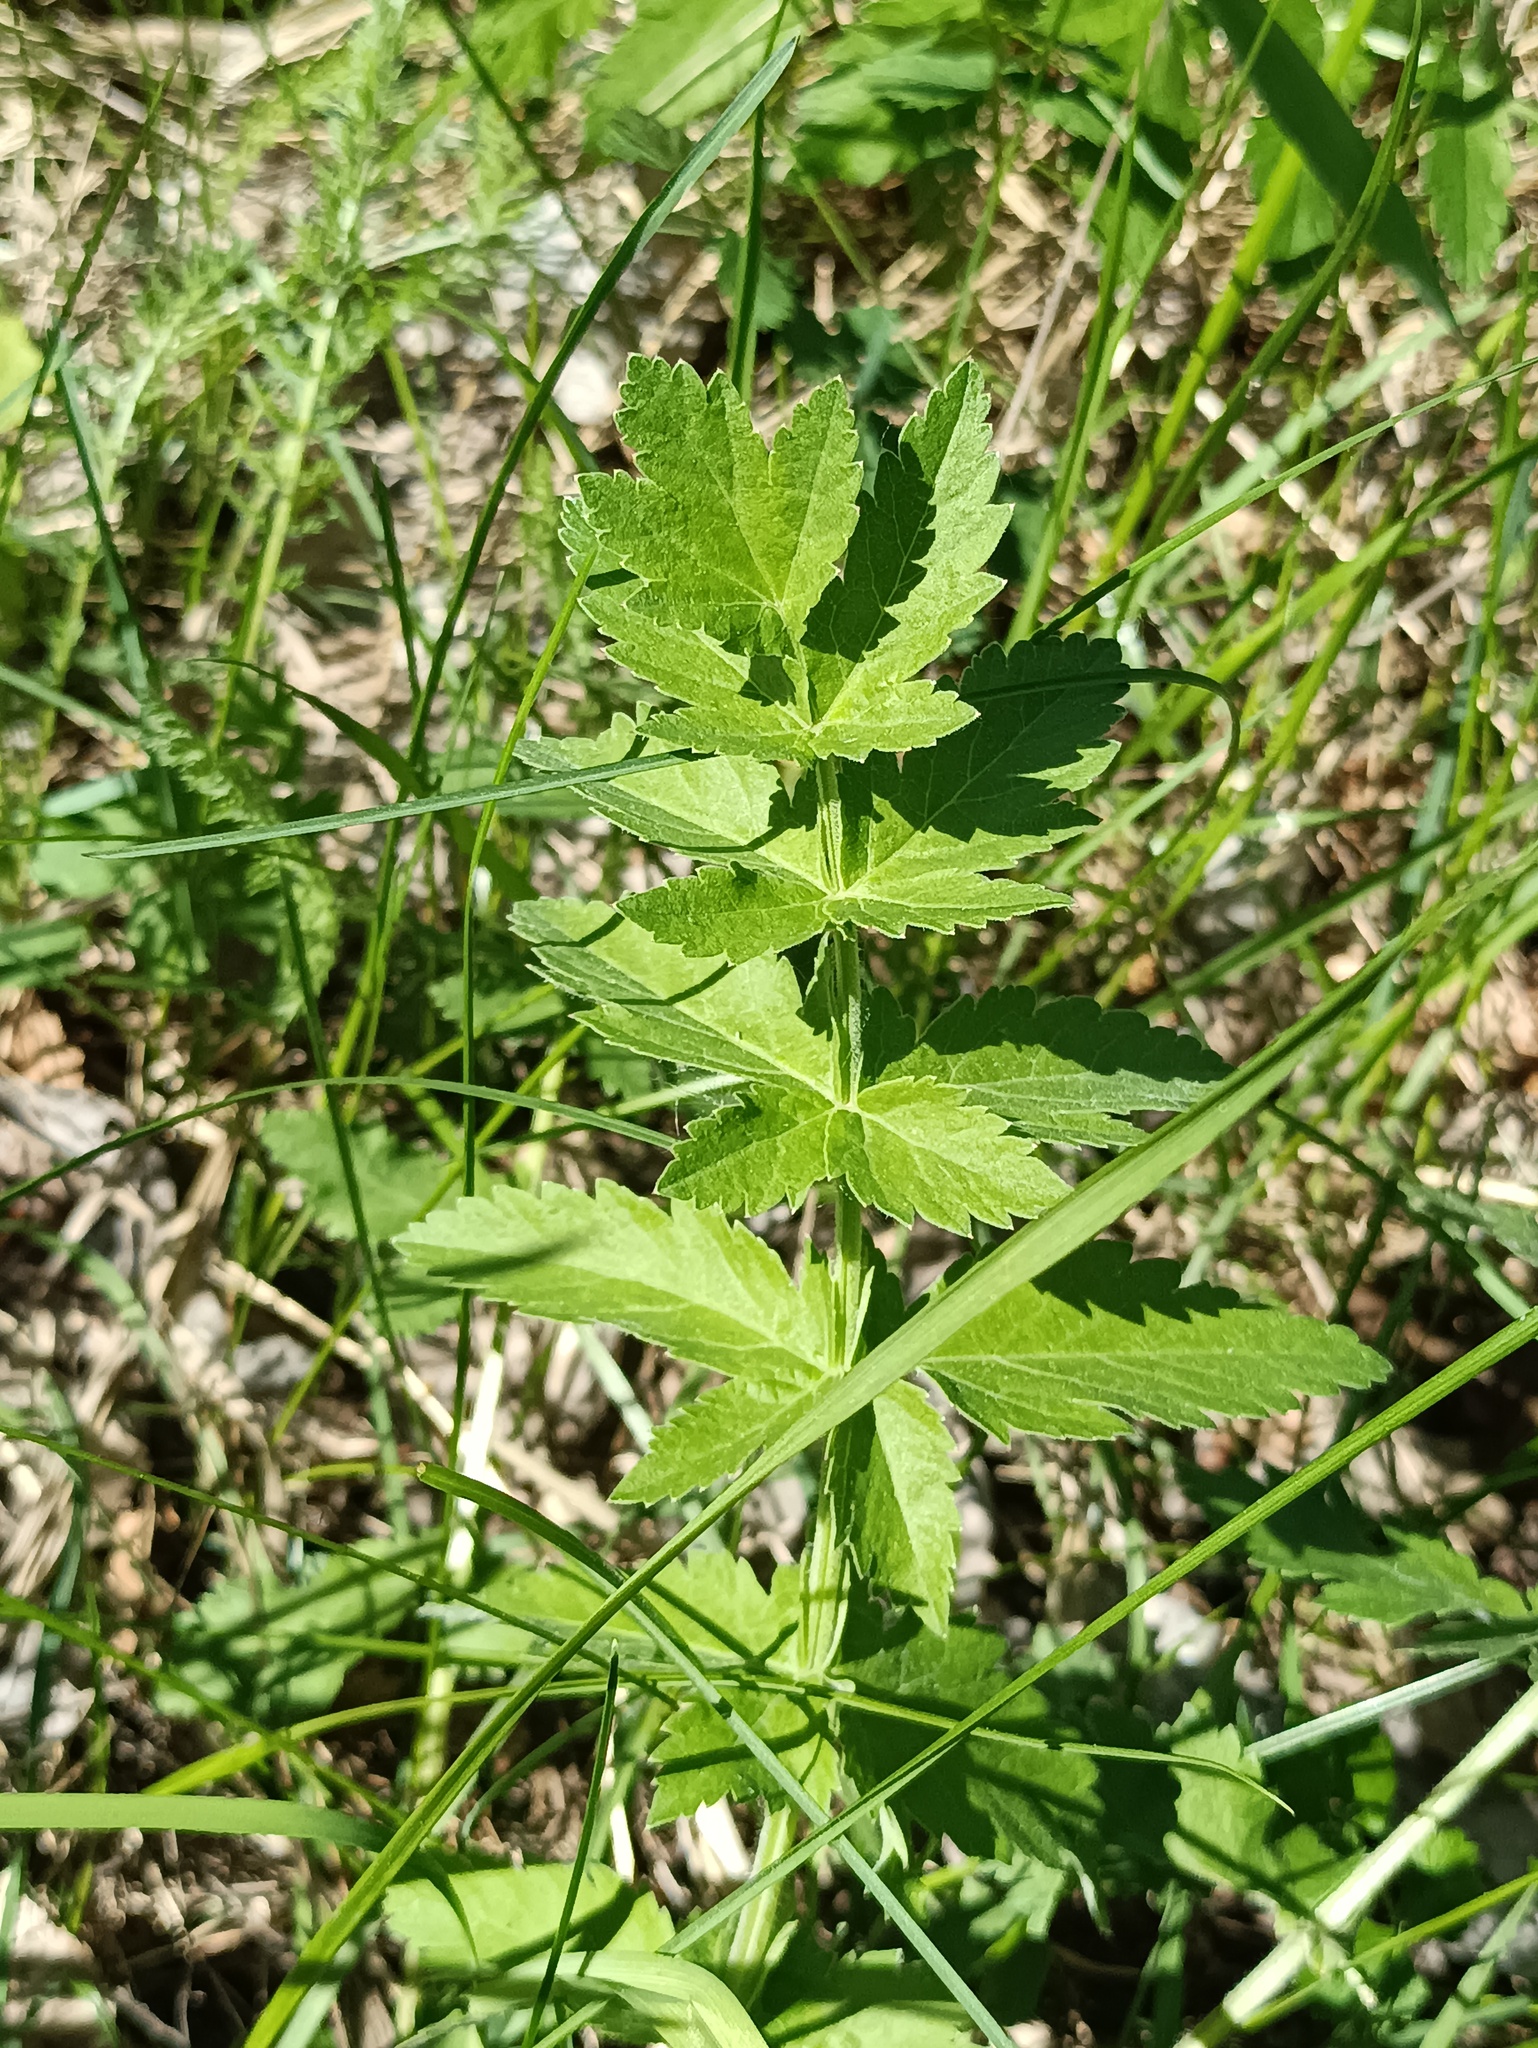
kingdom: Plantae
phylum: Tracheophyta
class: Magnoliopsida
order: Apiales
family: Apiaceae
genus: Pastinaca
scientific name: Pastinaca sativa
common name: Wild parsnip
